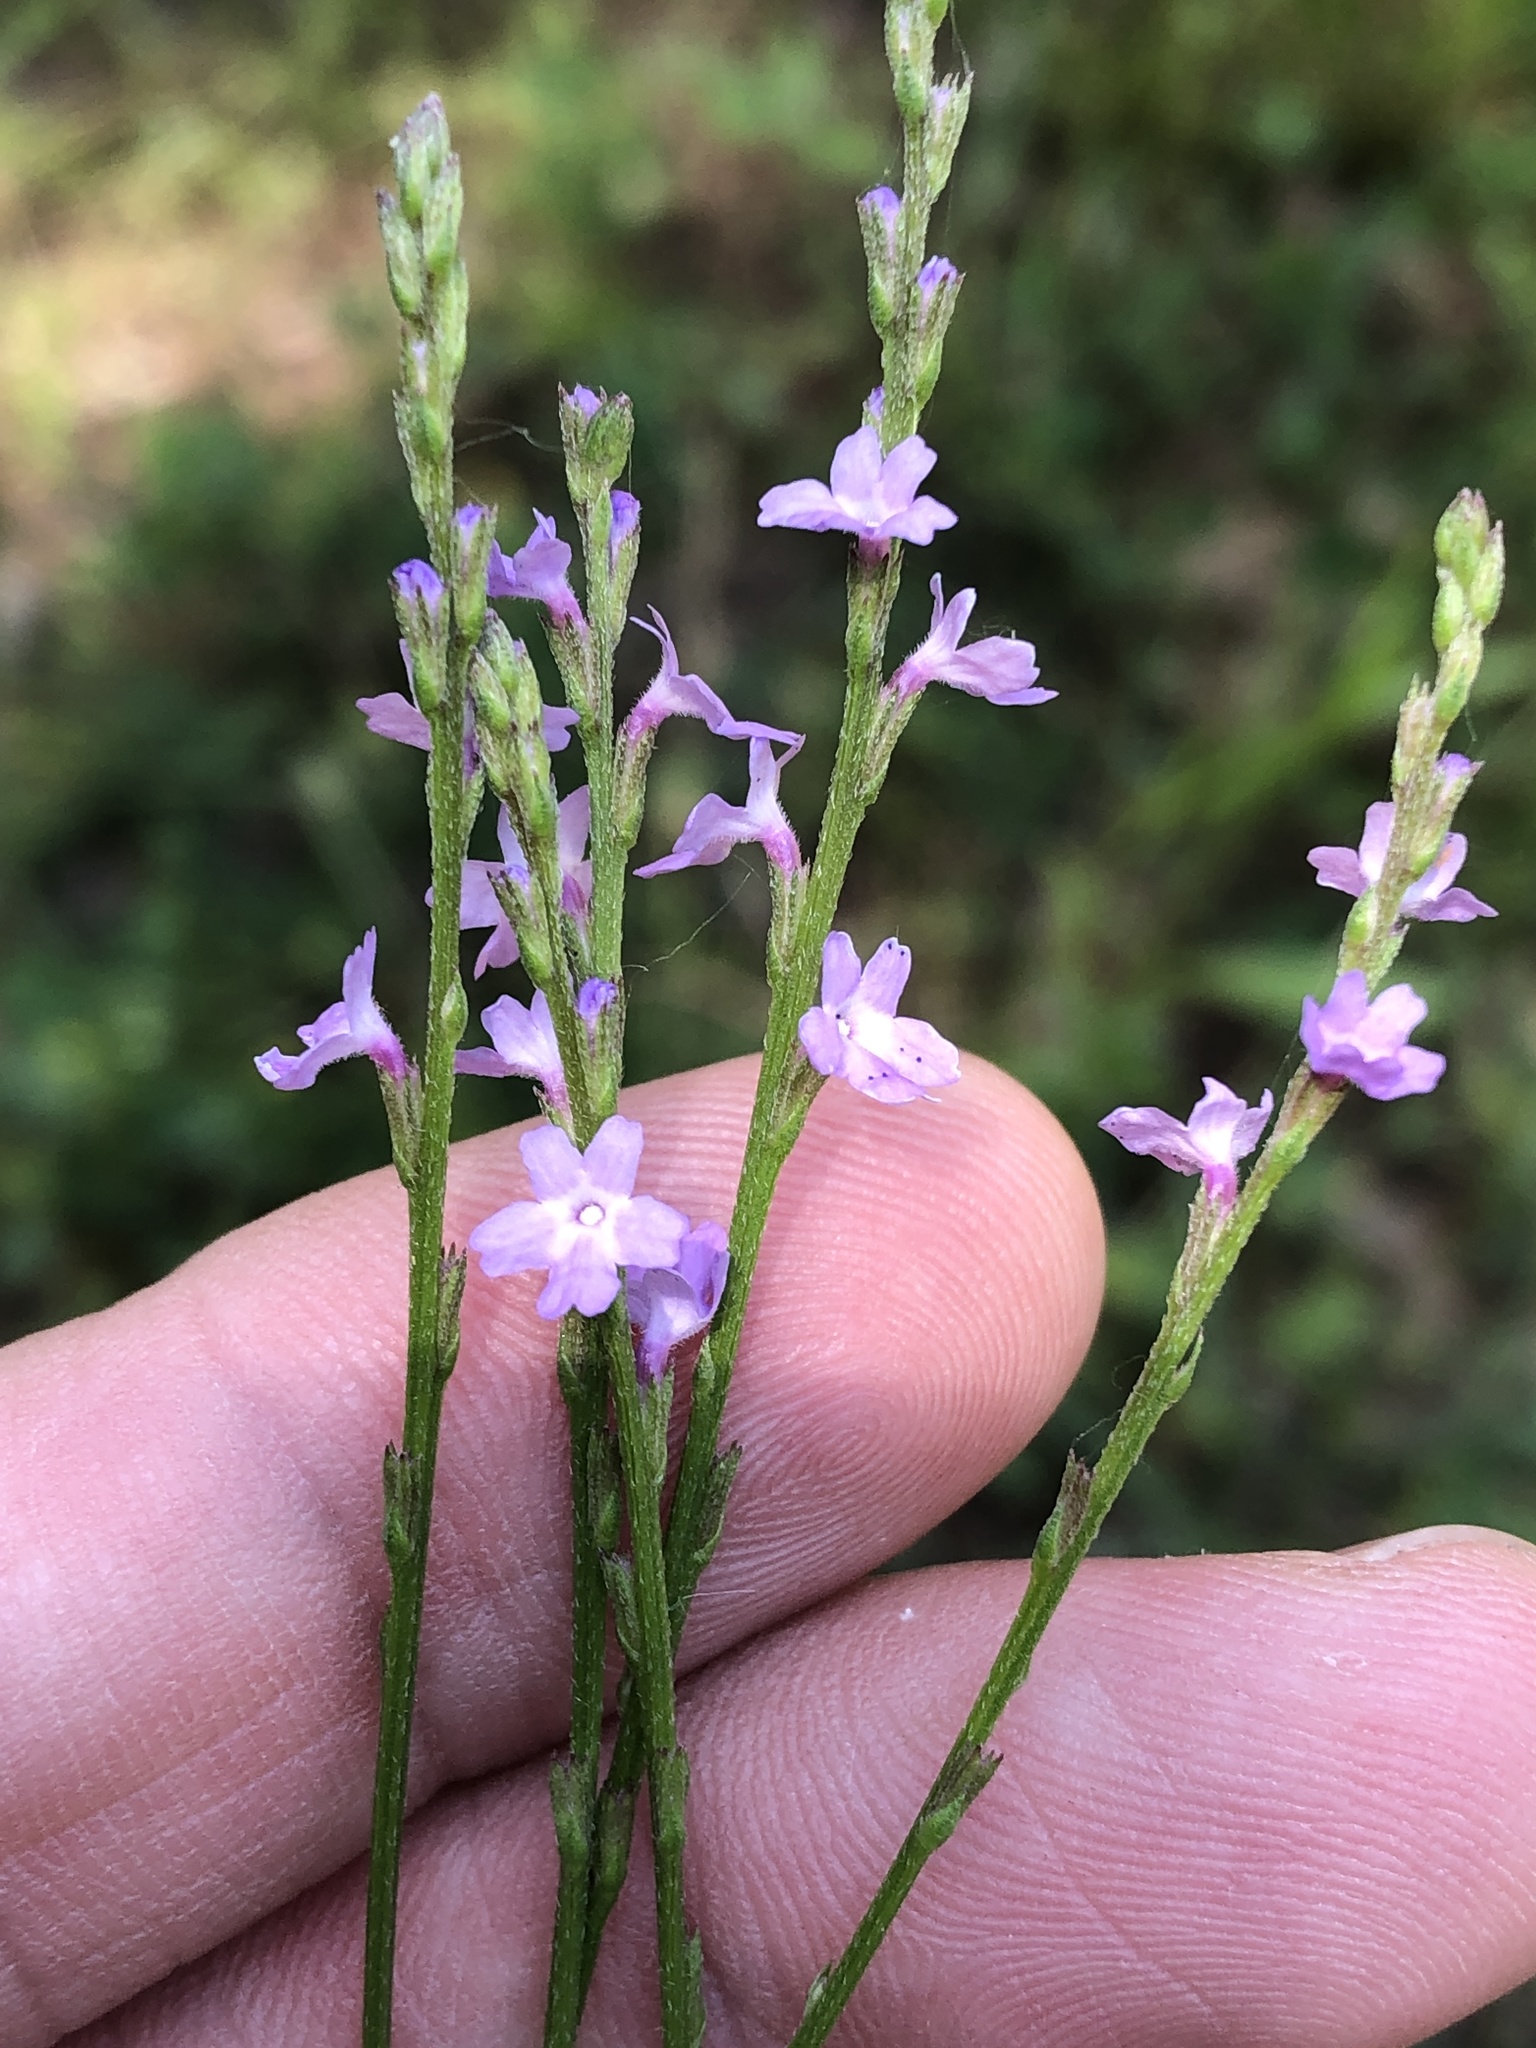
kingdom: Plantae
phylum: Tracheophyta
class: Magnoliopsida
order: Lamiales
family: Verbenaceae
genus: Verbena
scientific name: Verbena halei
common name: Texas vervain
